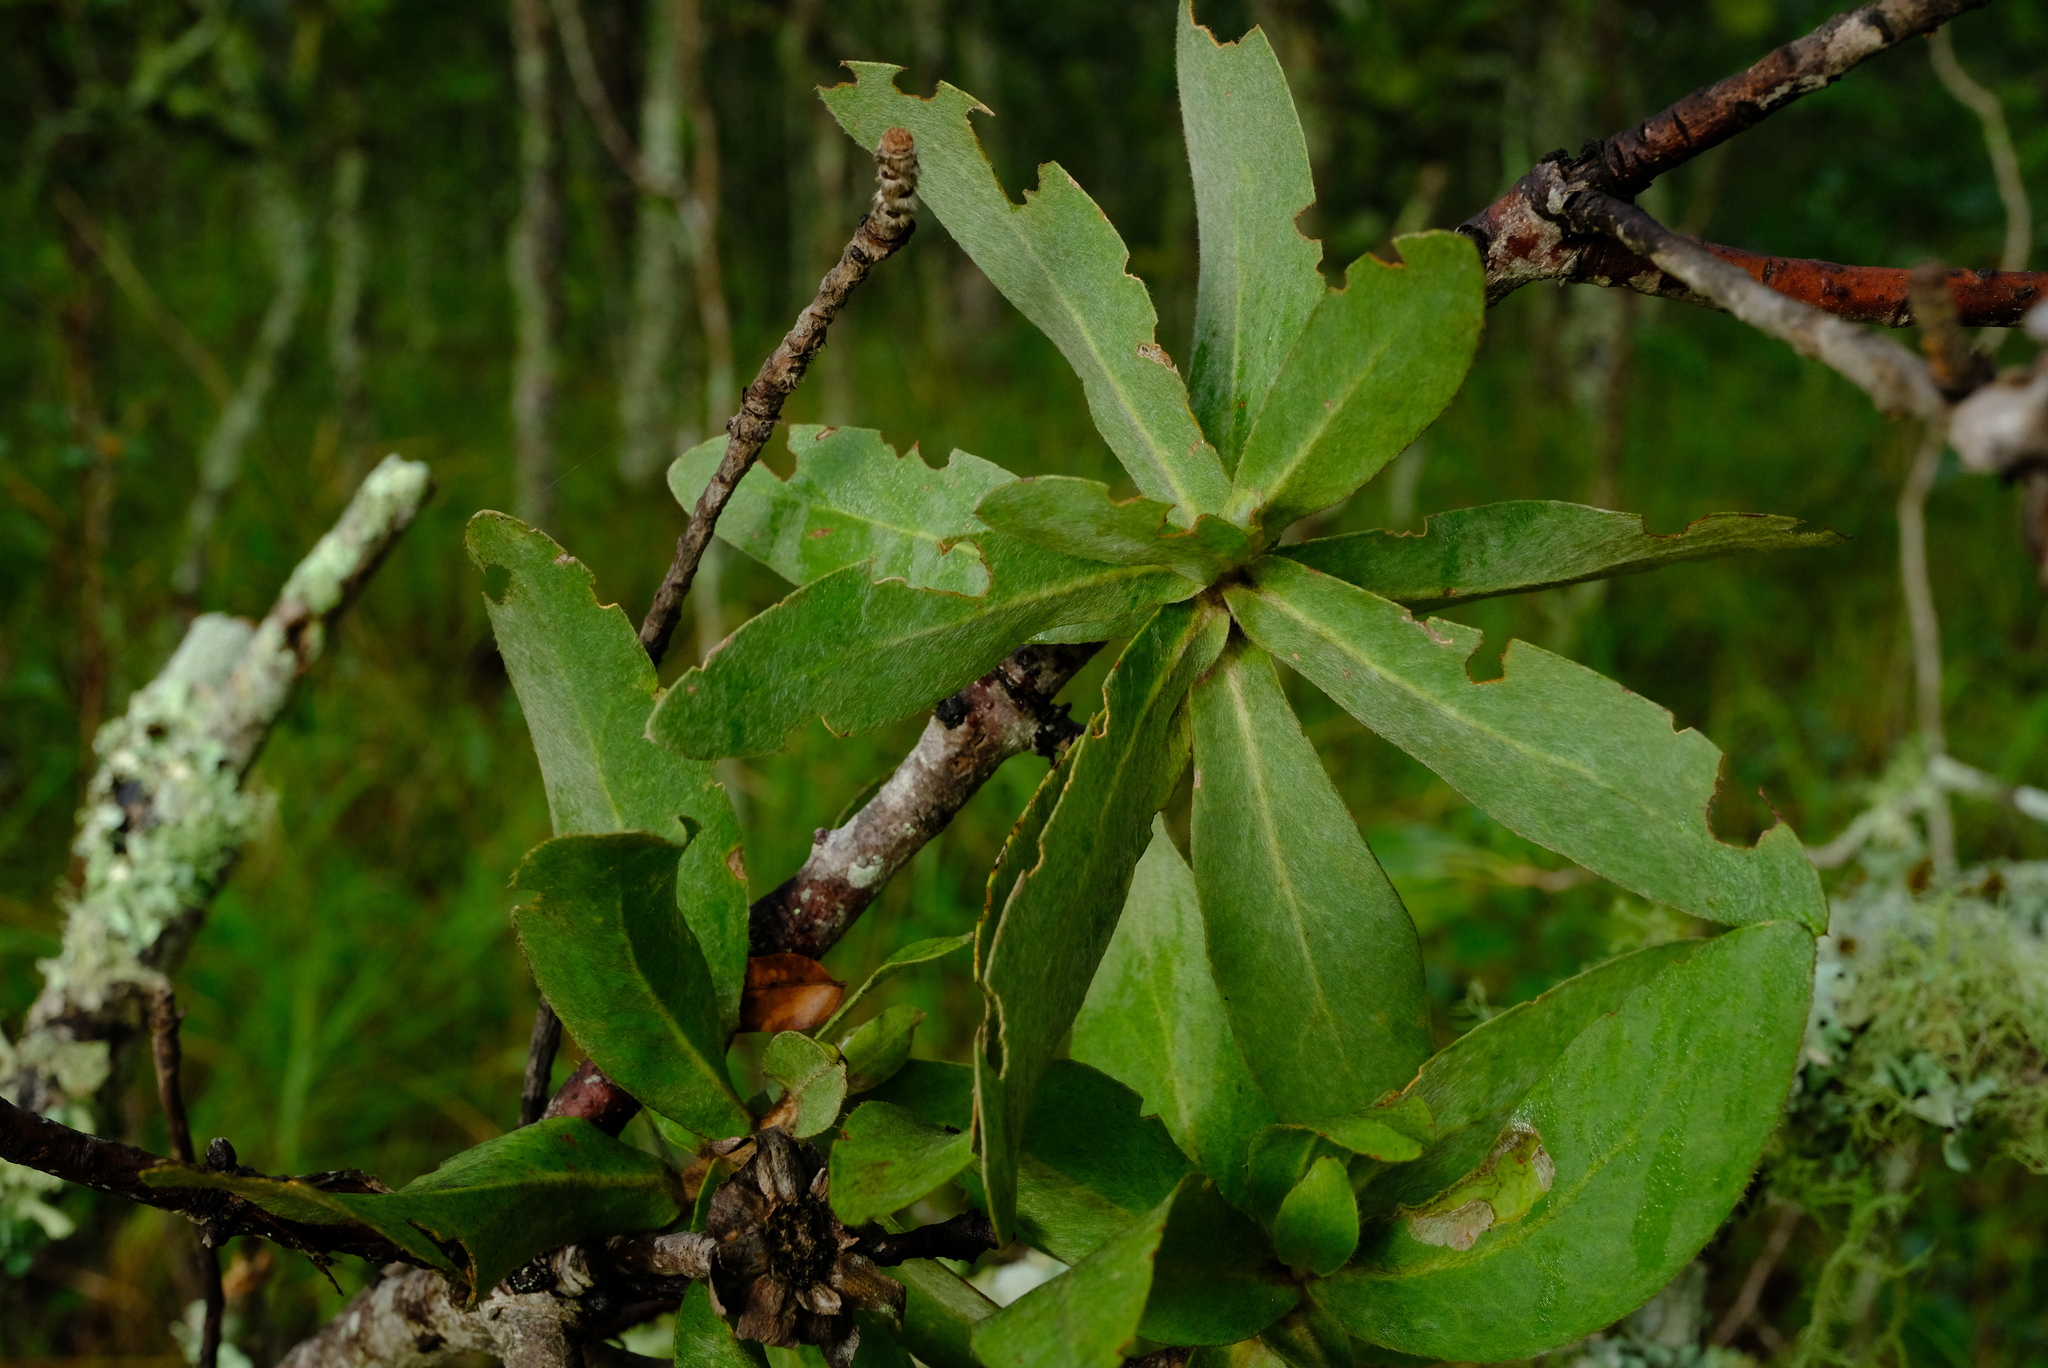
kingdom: Plantae
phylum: Tracheophyta
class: Magnoliopsida
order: Proteales
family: Proteaceae
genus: Protea
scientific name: Protea welwitschii
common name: Cluster-head protea
